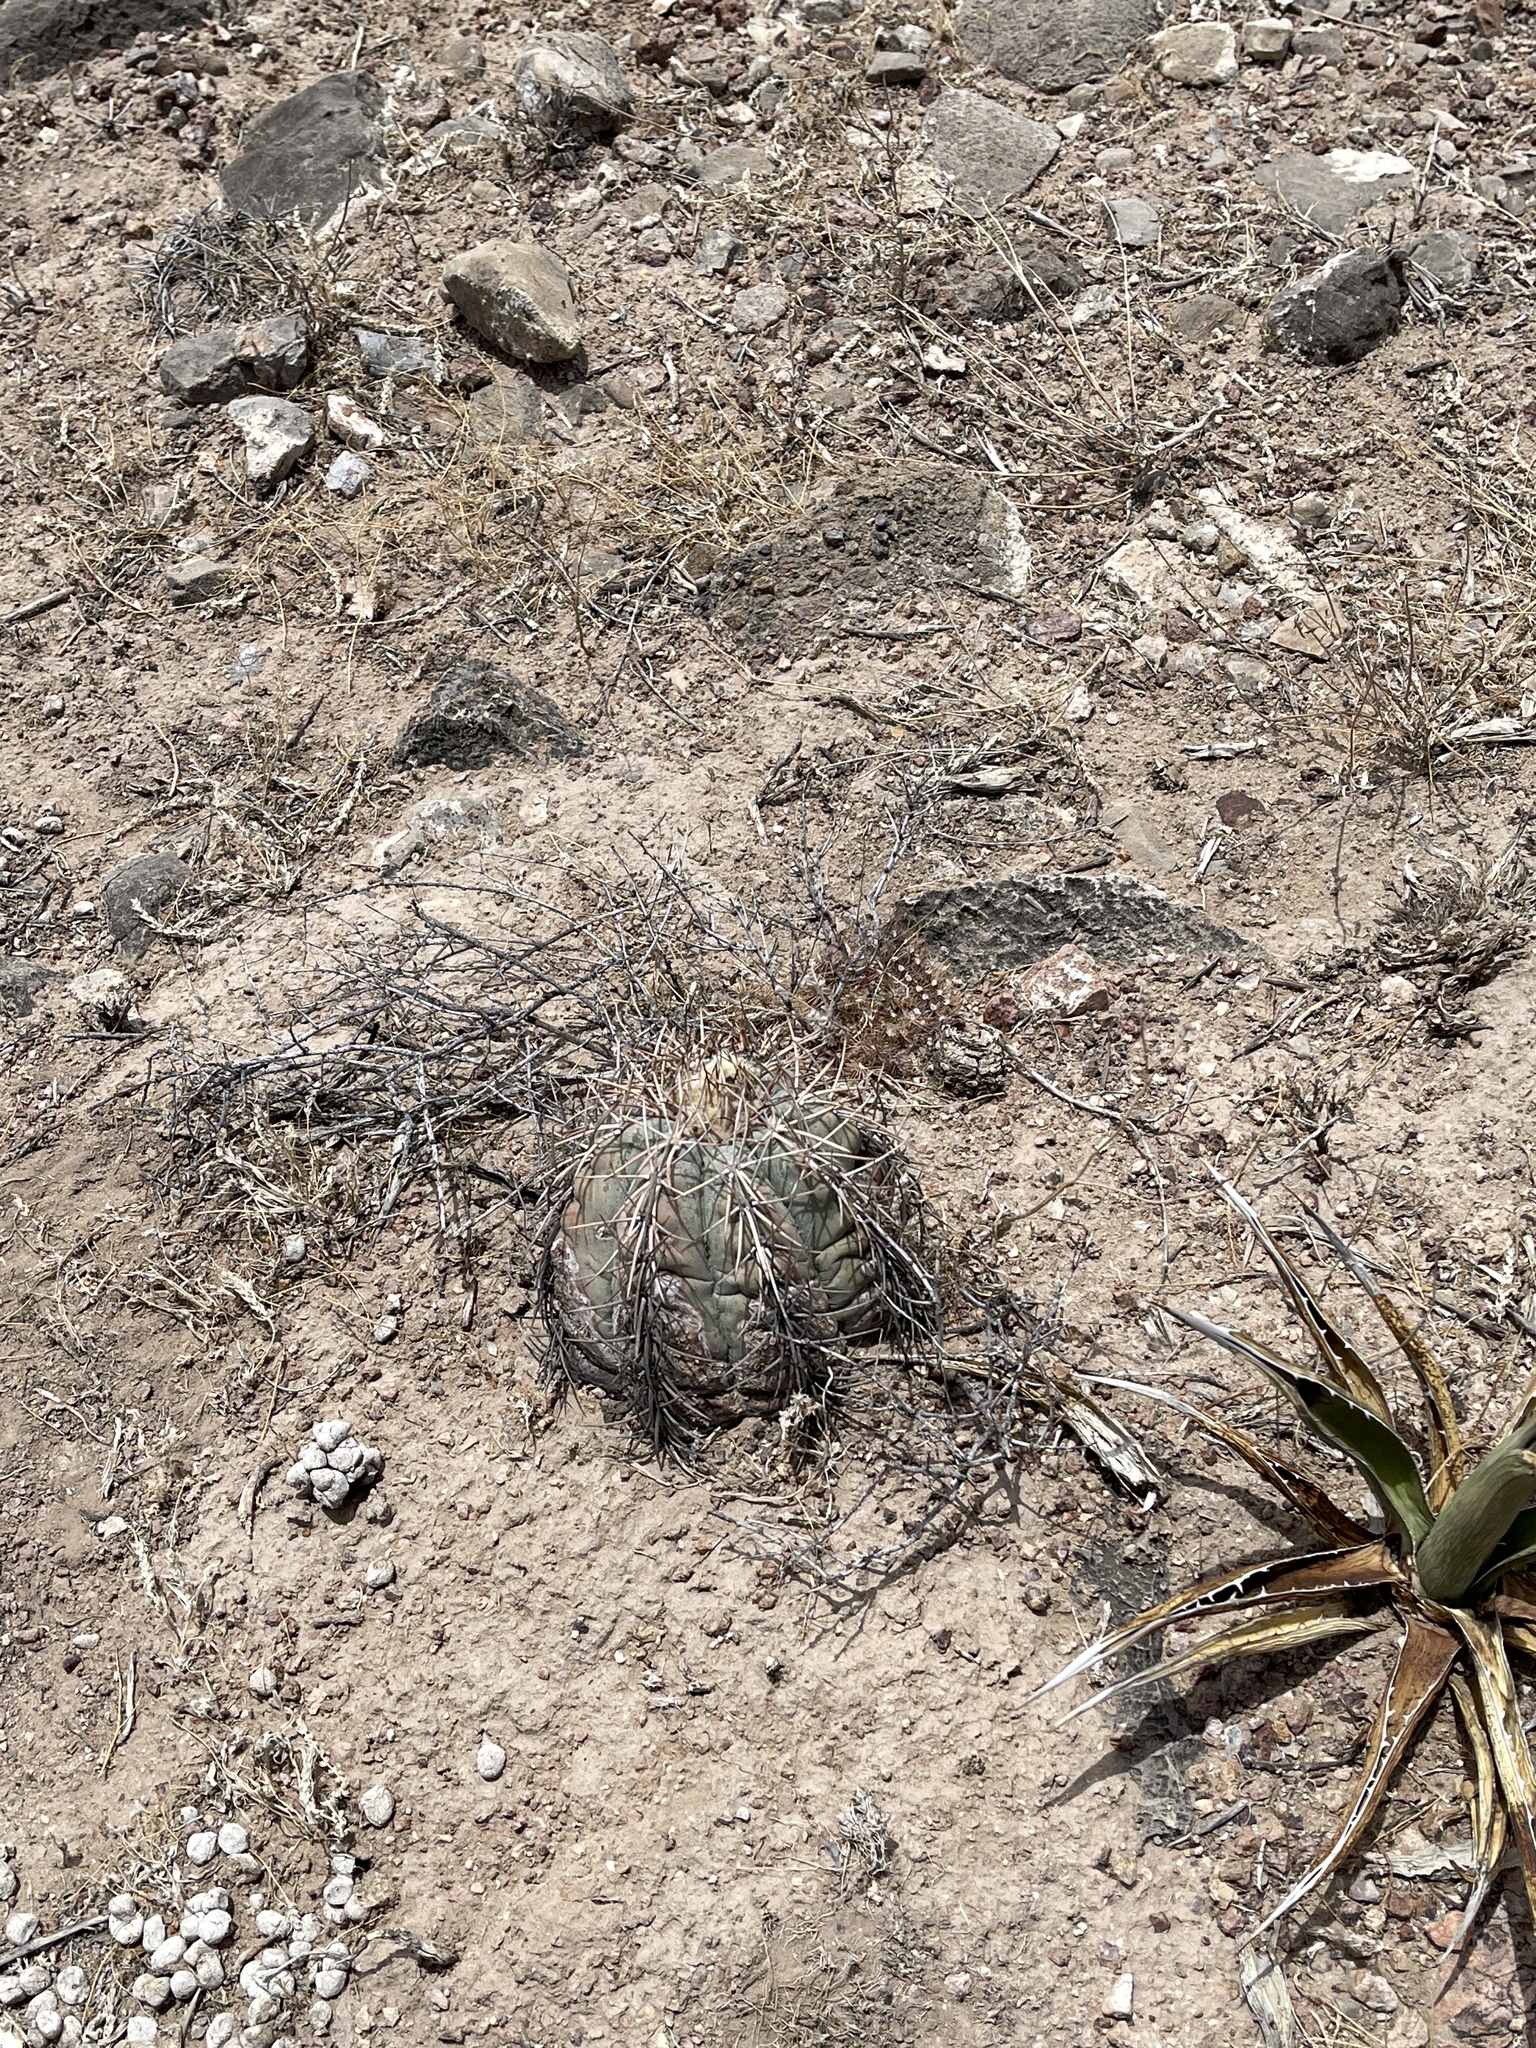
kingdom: Plantae
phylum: Tracheophyta
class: Magnoliopsida
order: Caryophyllales
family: Cactaceae
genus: Echinocactus
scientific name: Echinocactus horizonthalonius
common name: Devilshead
